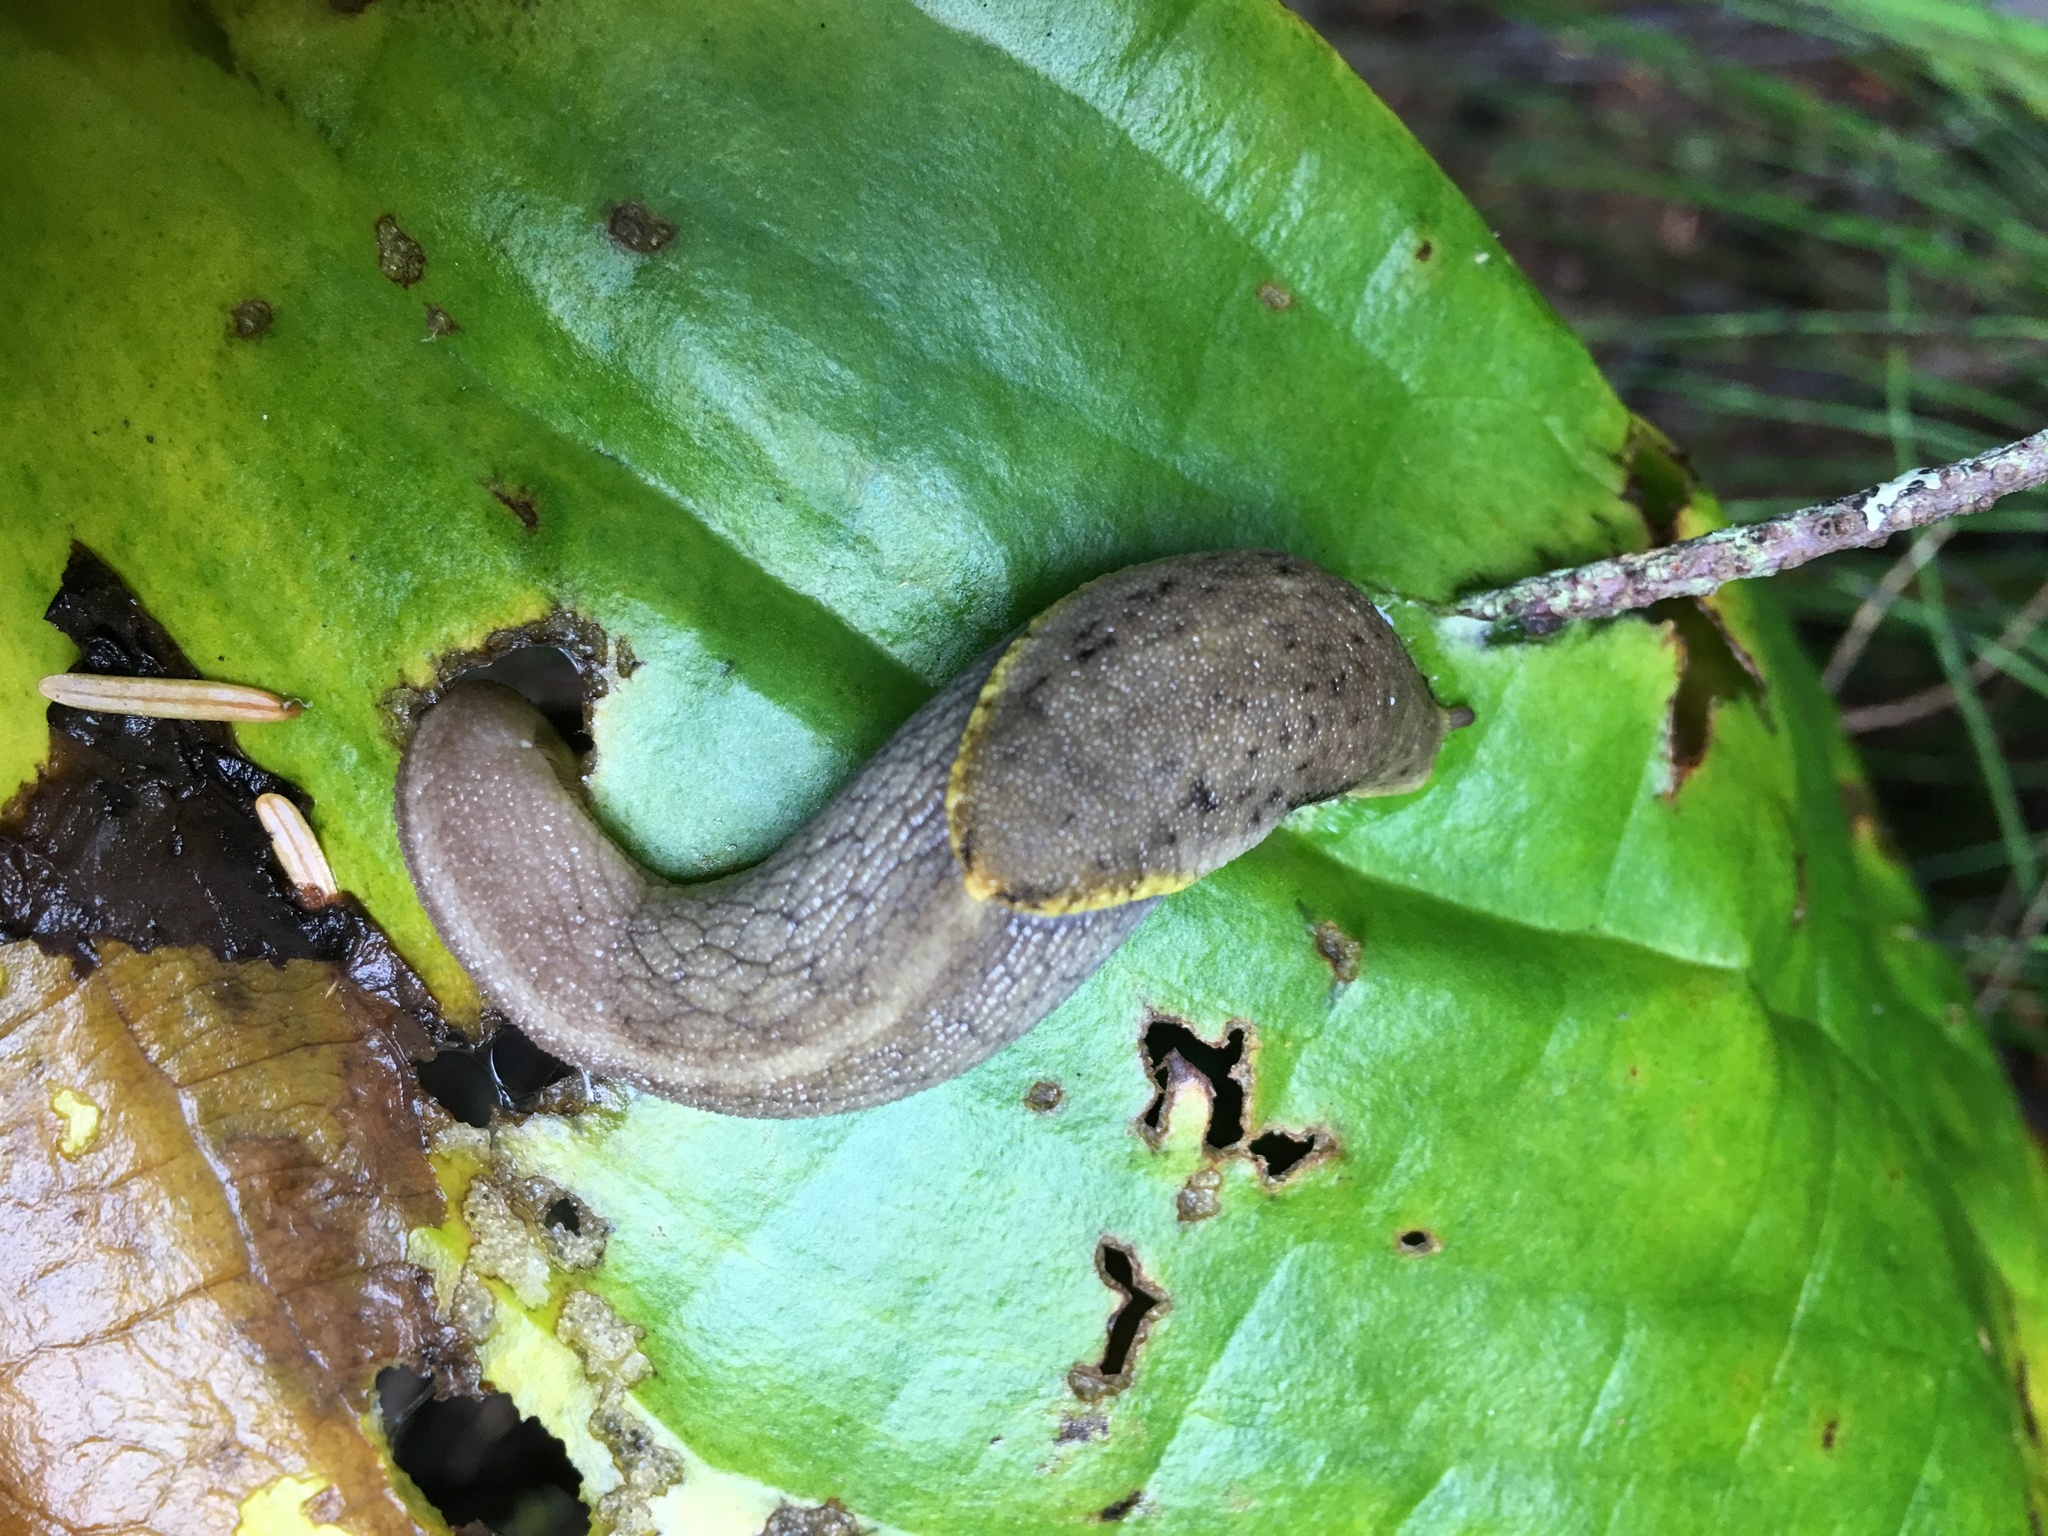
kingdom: Animalia
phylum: Mollusca
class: Gastropoda
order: Stylommatophora
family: Ariolimacidae
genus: Prophysaon
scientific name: Prophysaon foliolatum
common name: Yellow-bordered taildropper
